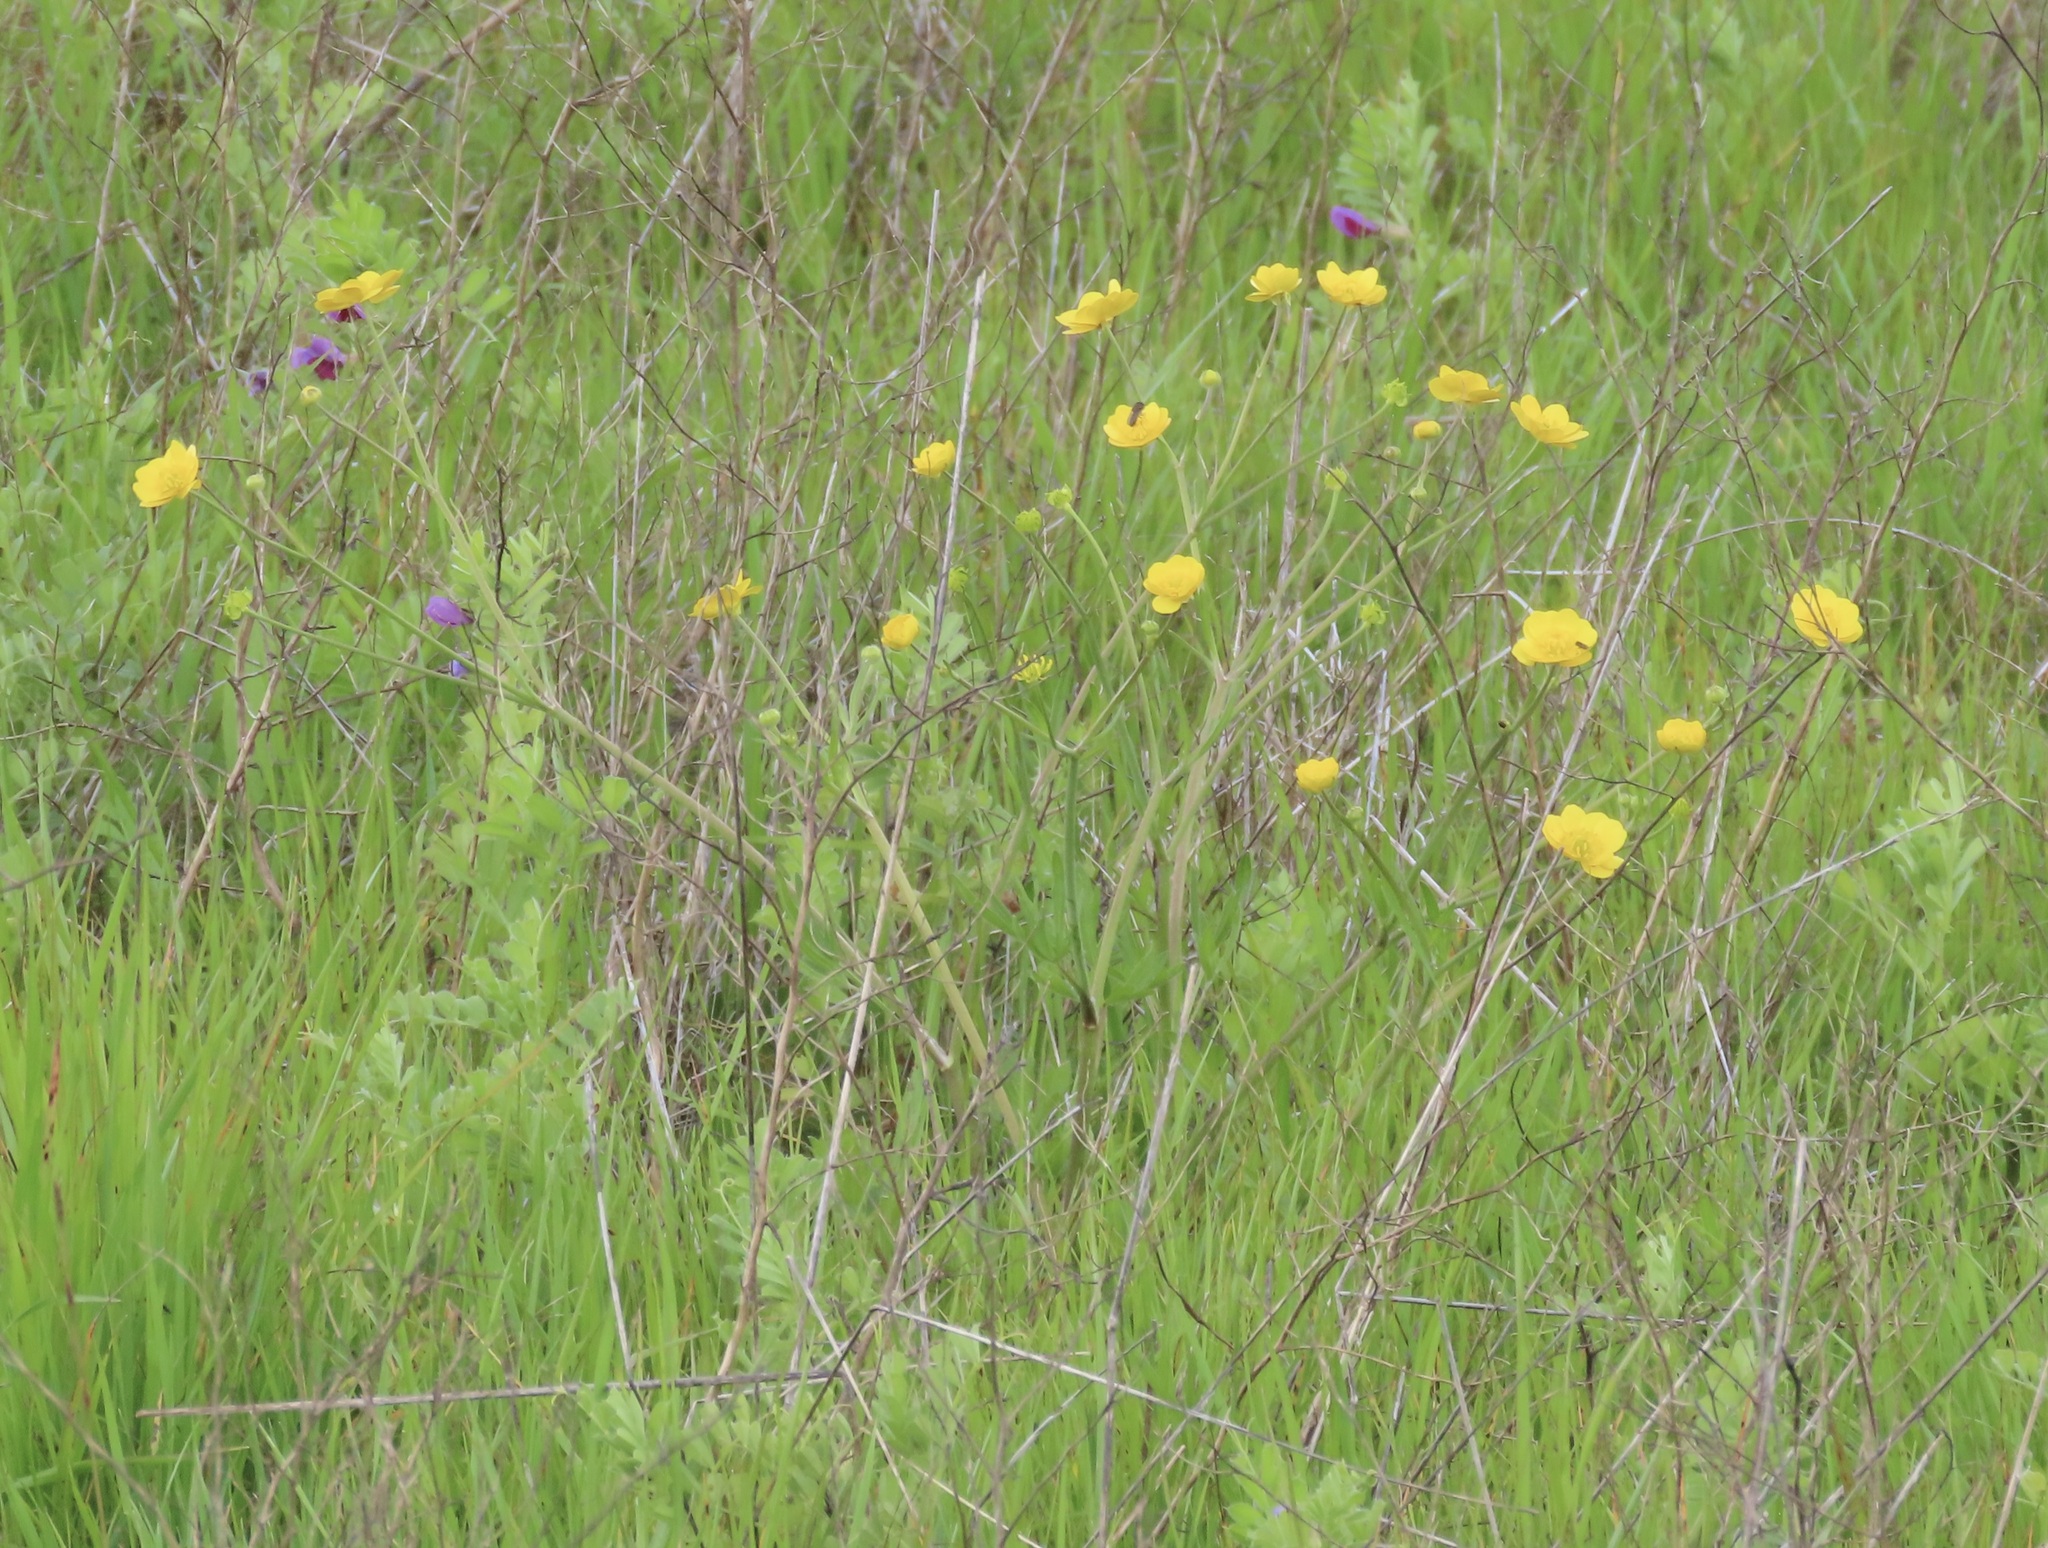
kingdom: Plantae
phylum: Tracheophyta
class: Magnoliopsida
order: Ranunculales
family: Ranunculaceae
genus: Ranunculus
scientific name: Ranunculus californicus
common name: California buttercup
